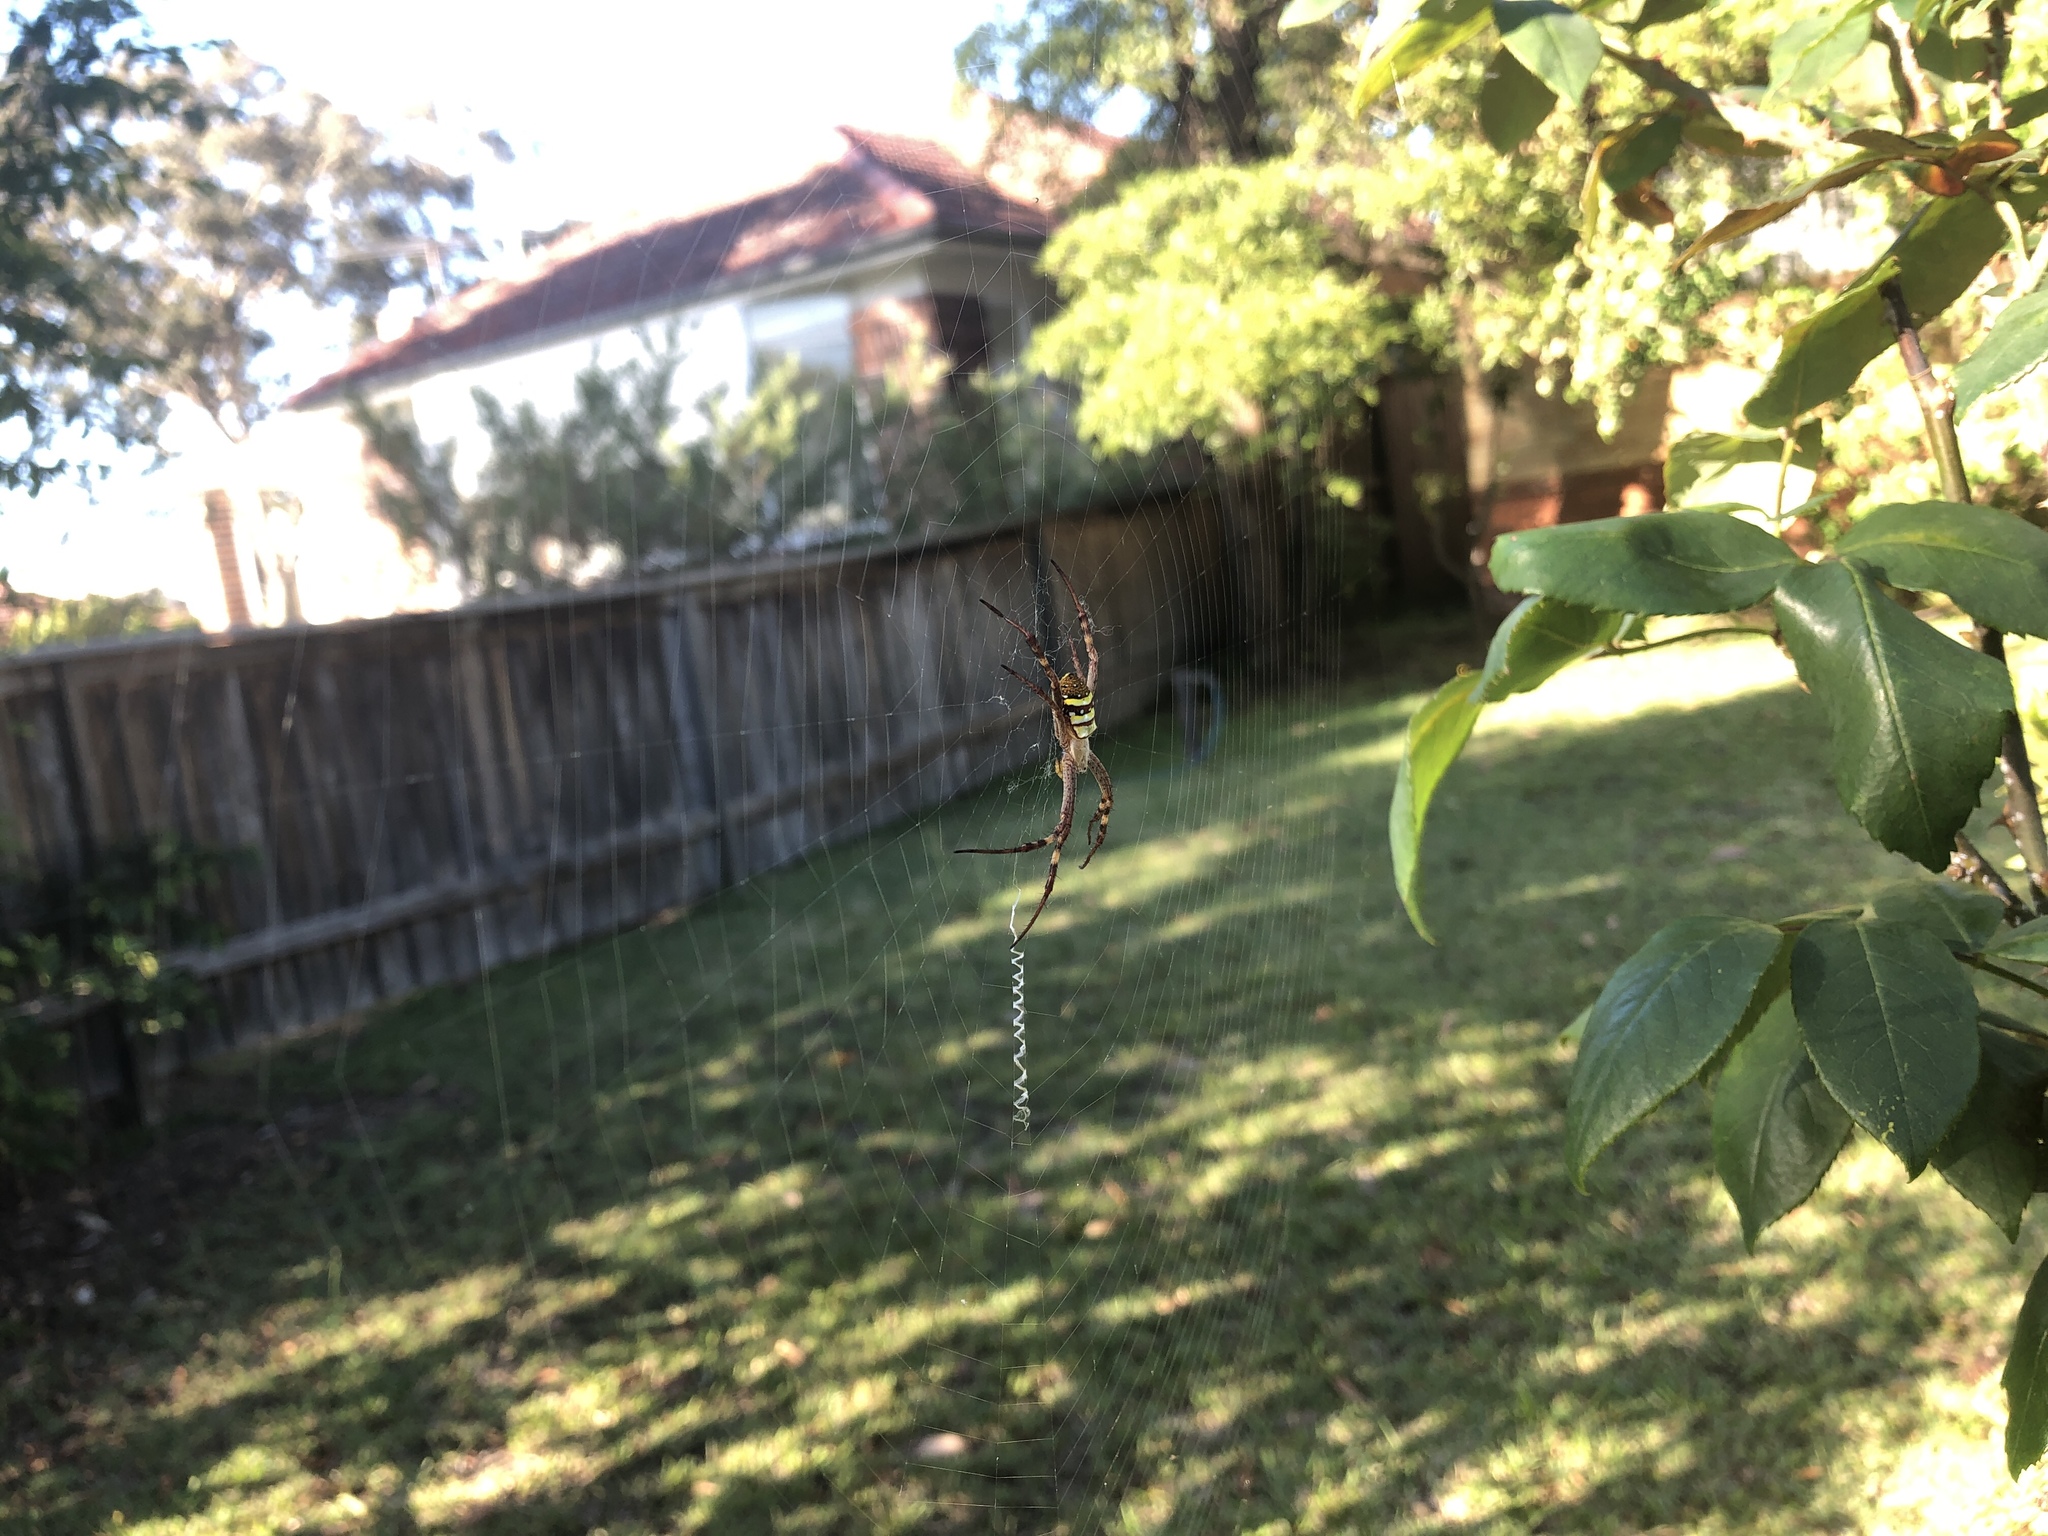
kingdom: Animalia
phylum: Arthropoda
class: Arachnida
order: Araneae
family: Araneidae
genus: Argiope
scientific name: Argiope keyserlingi
